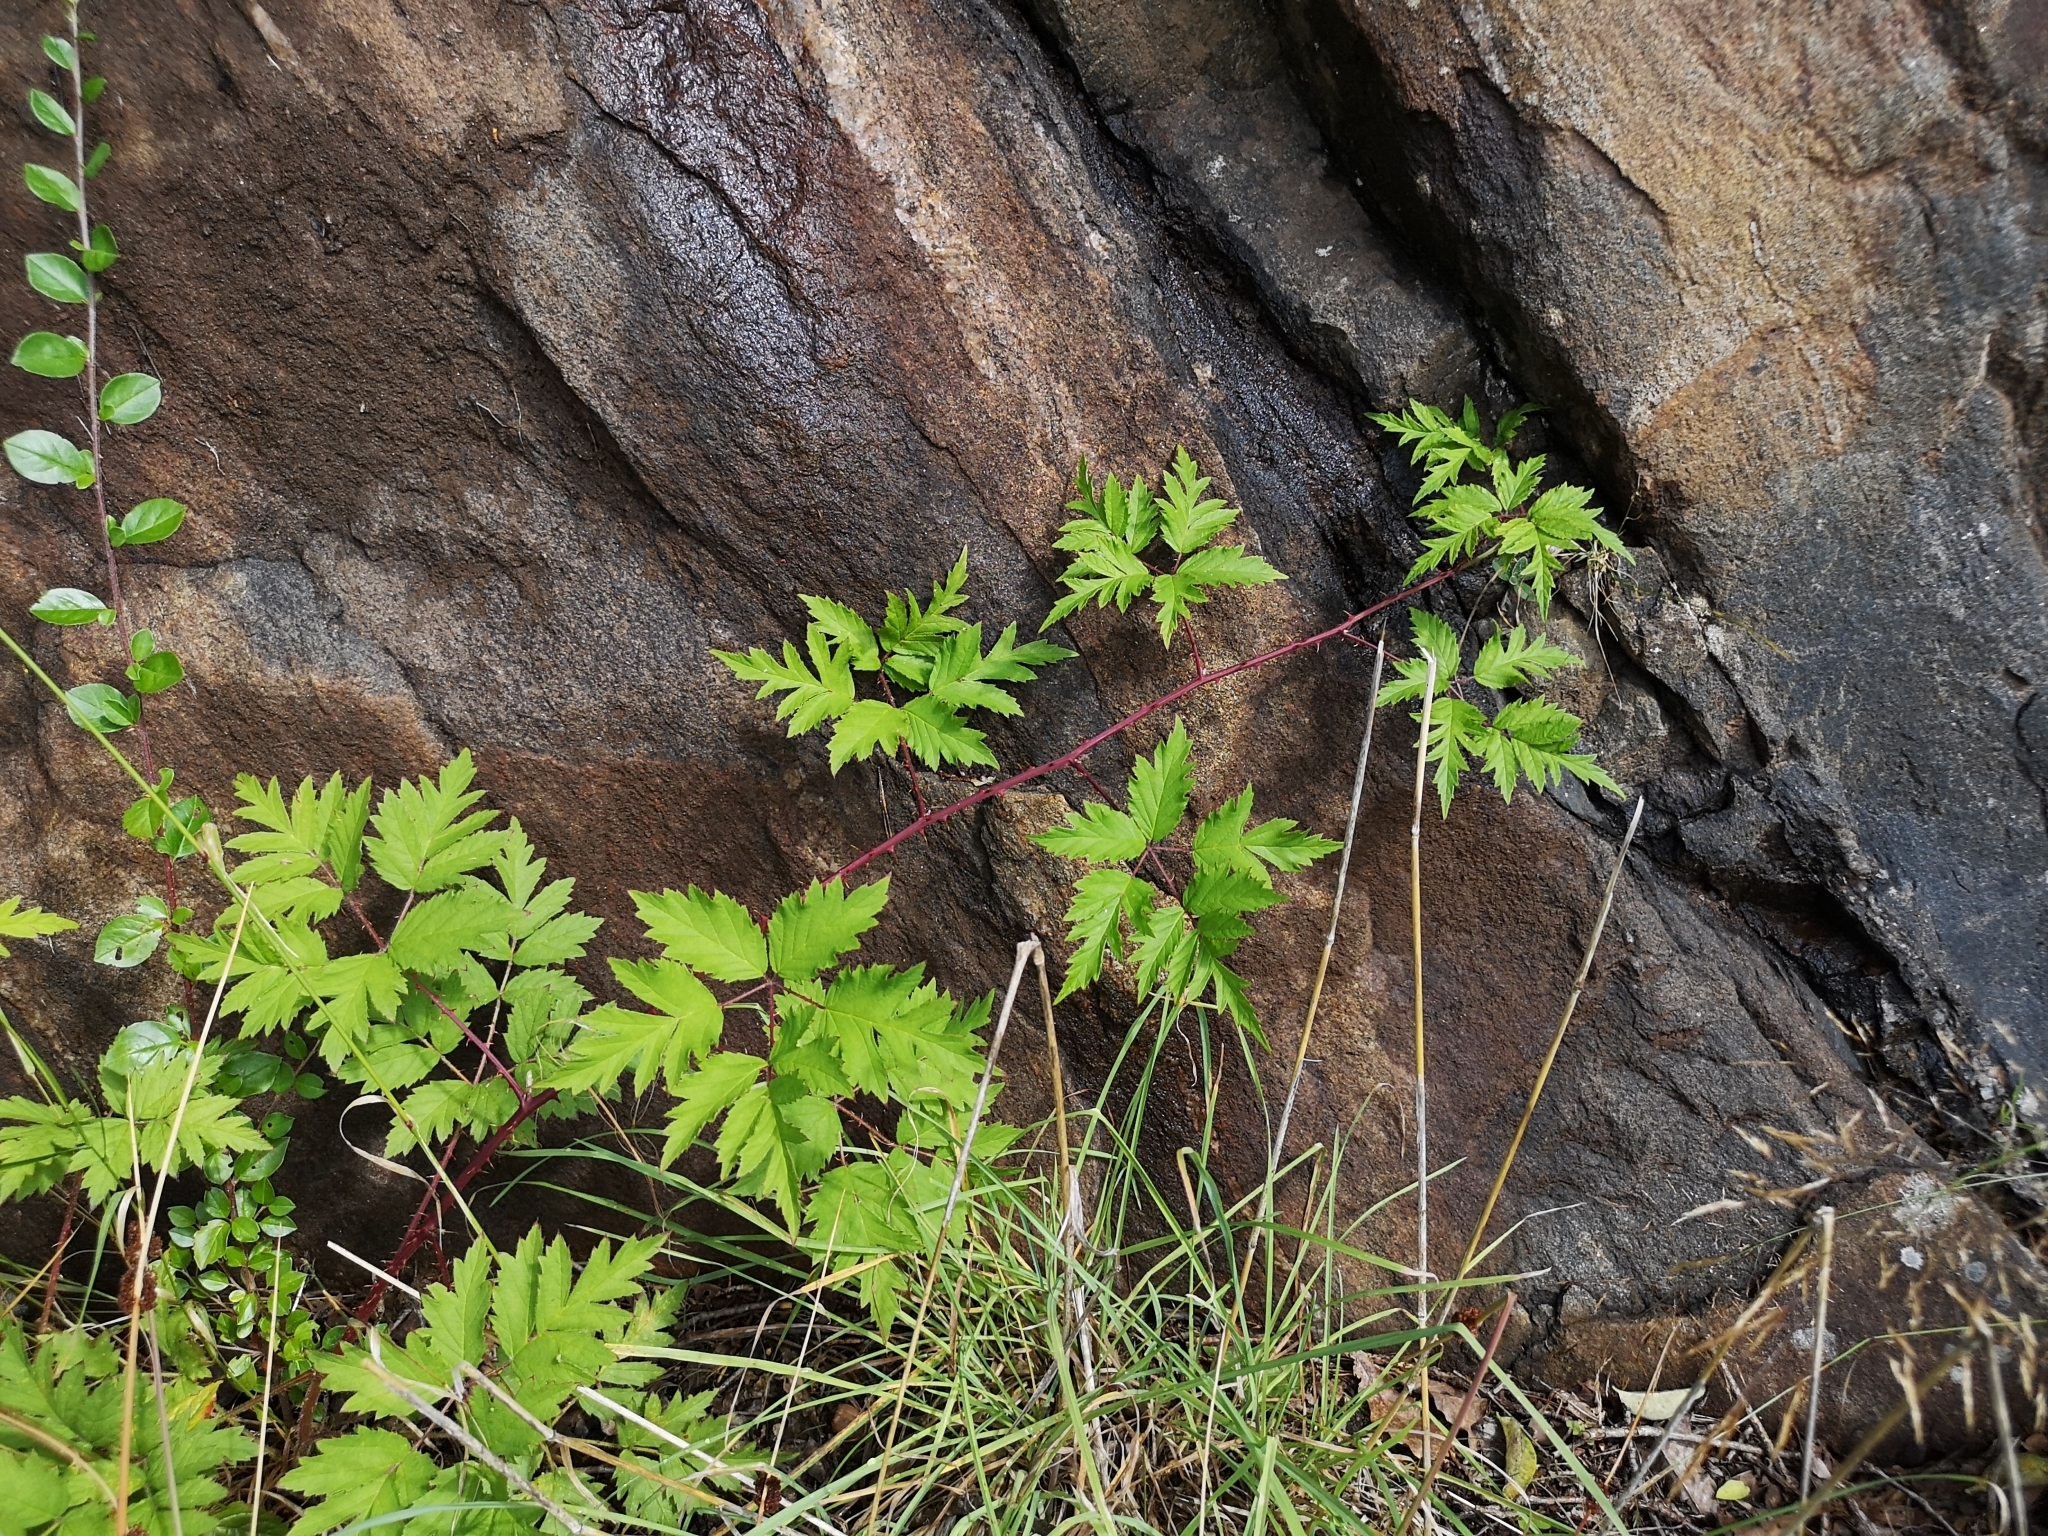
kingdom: Plantae
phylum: Tracheophyta
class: Magnoliopsida
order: Rosales
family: Rosaceae
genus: Rubus
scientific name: Rubus laciniatus
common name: Evergreen blackberry
